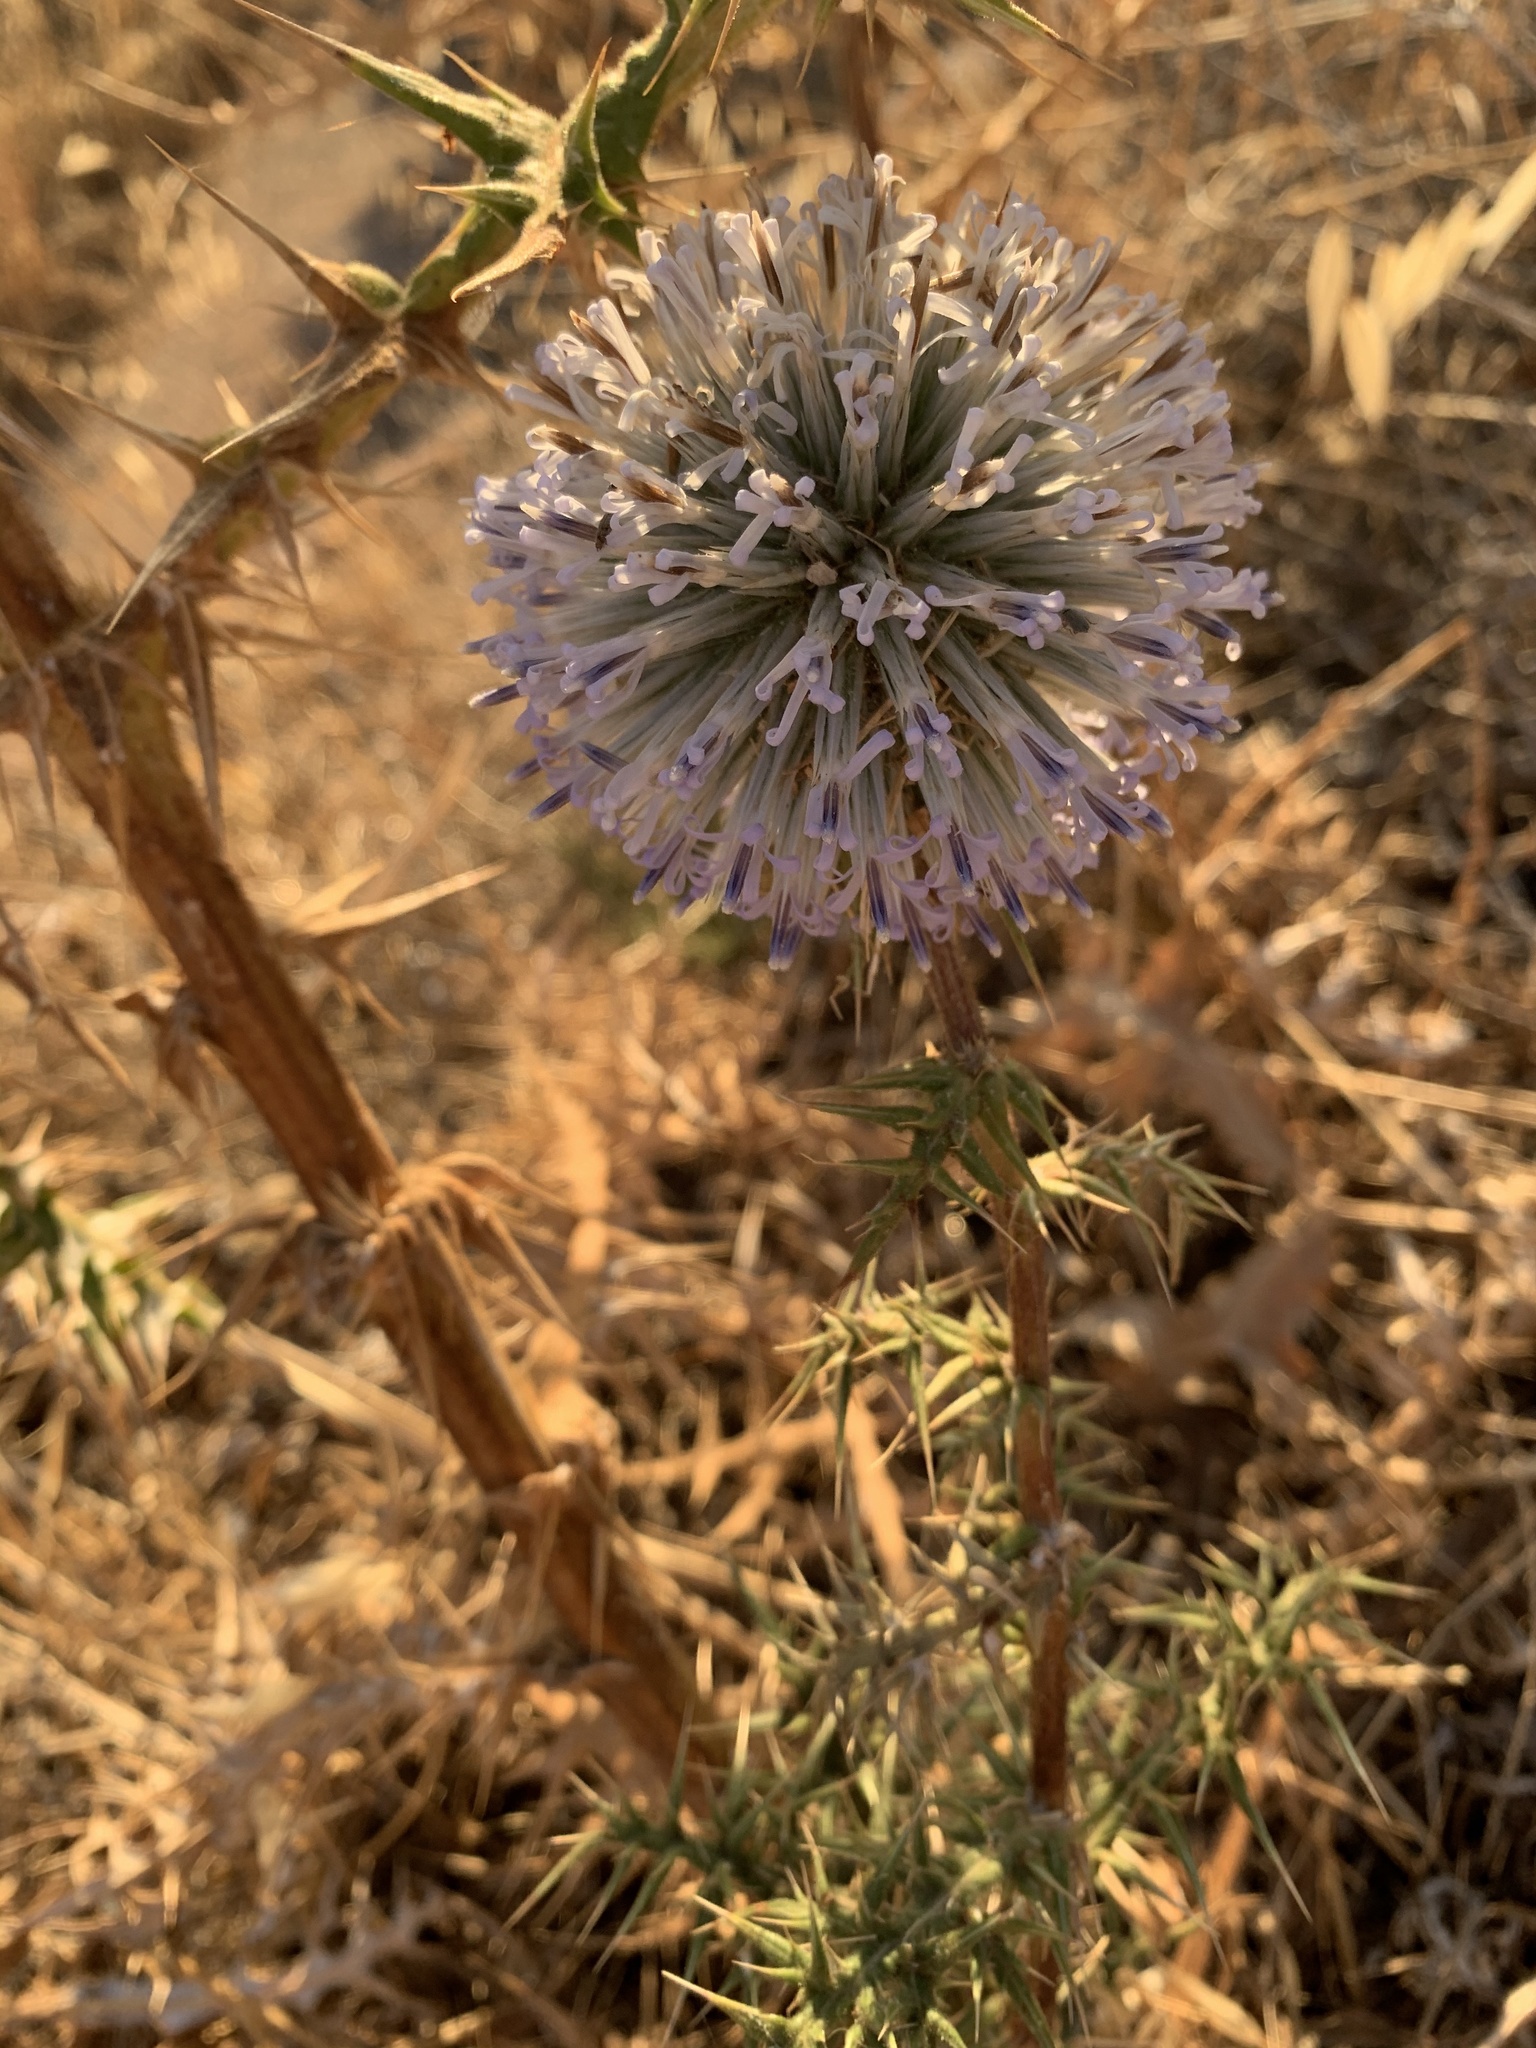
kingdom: Plantae
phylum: Tracheophyta
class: Magnoliopsida
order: Asterales
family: Asteraceae
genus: Echinops
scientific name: Echinops spinosissimus
